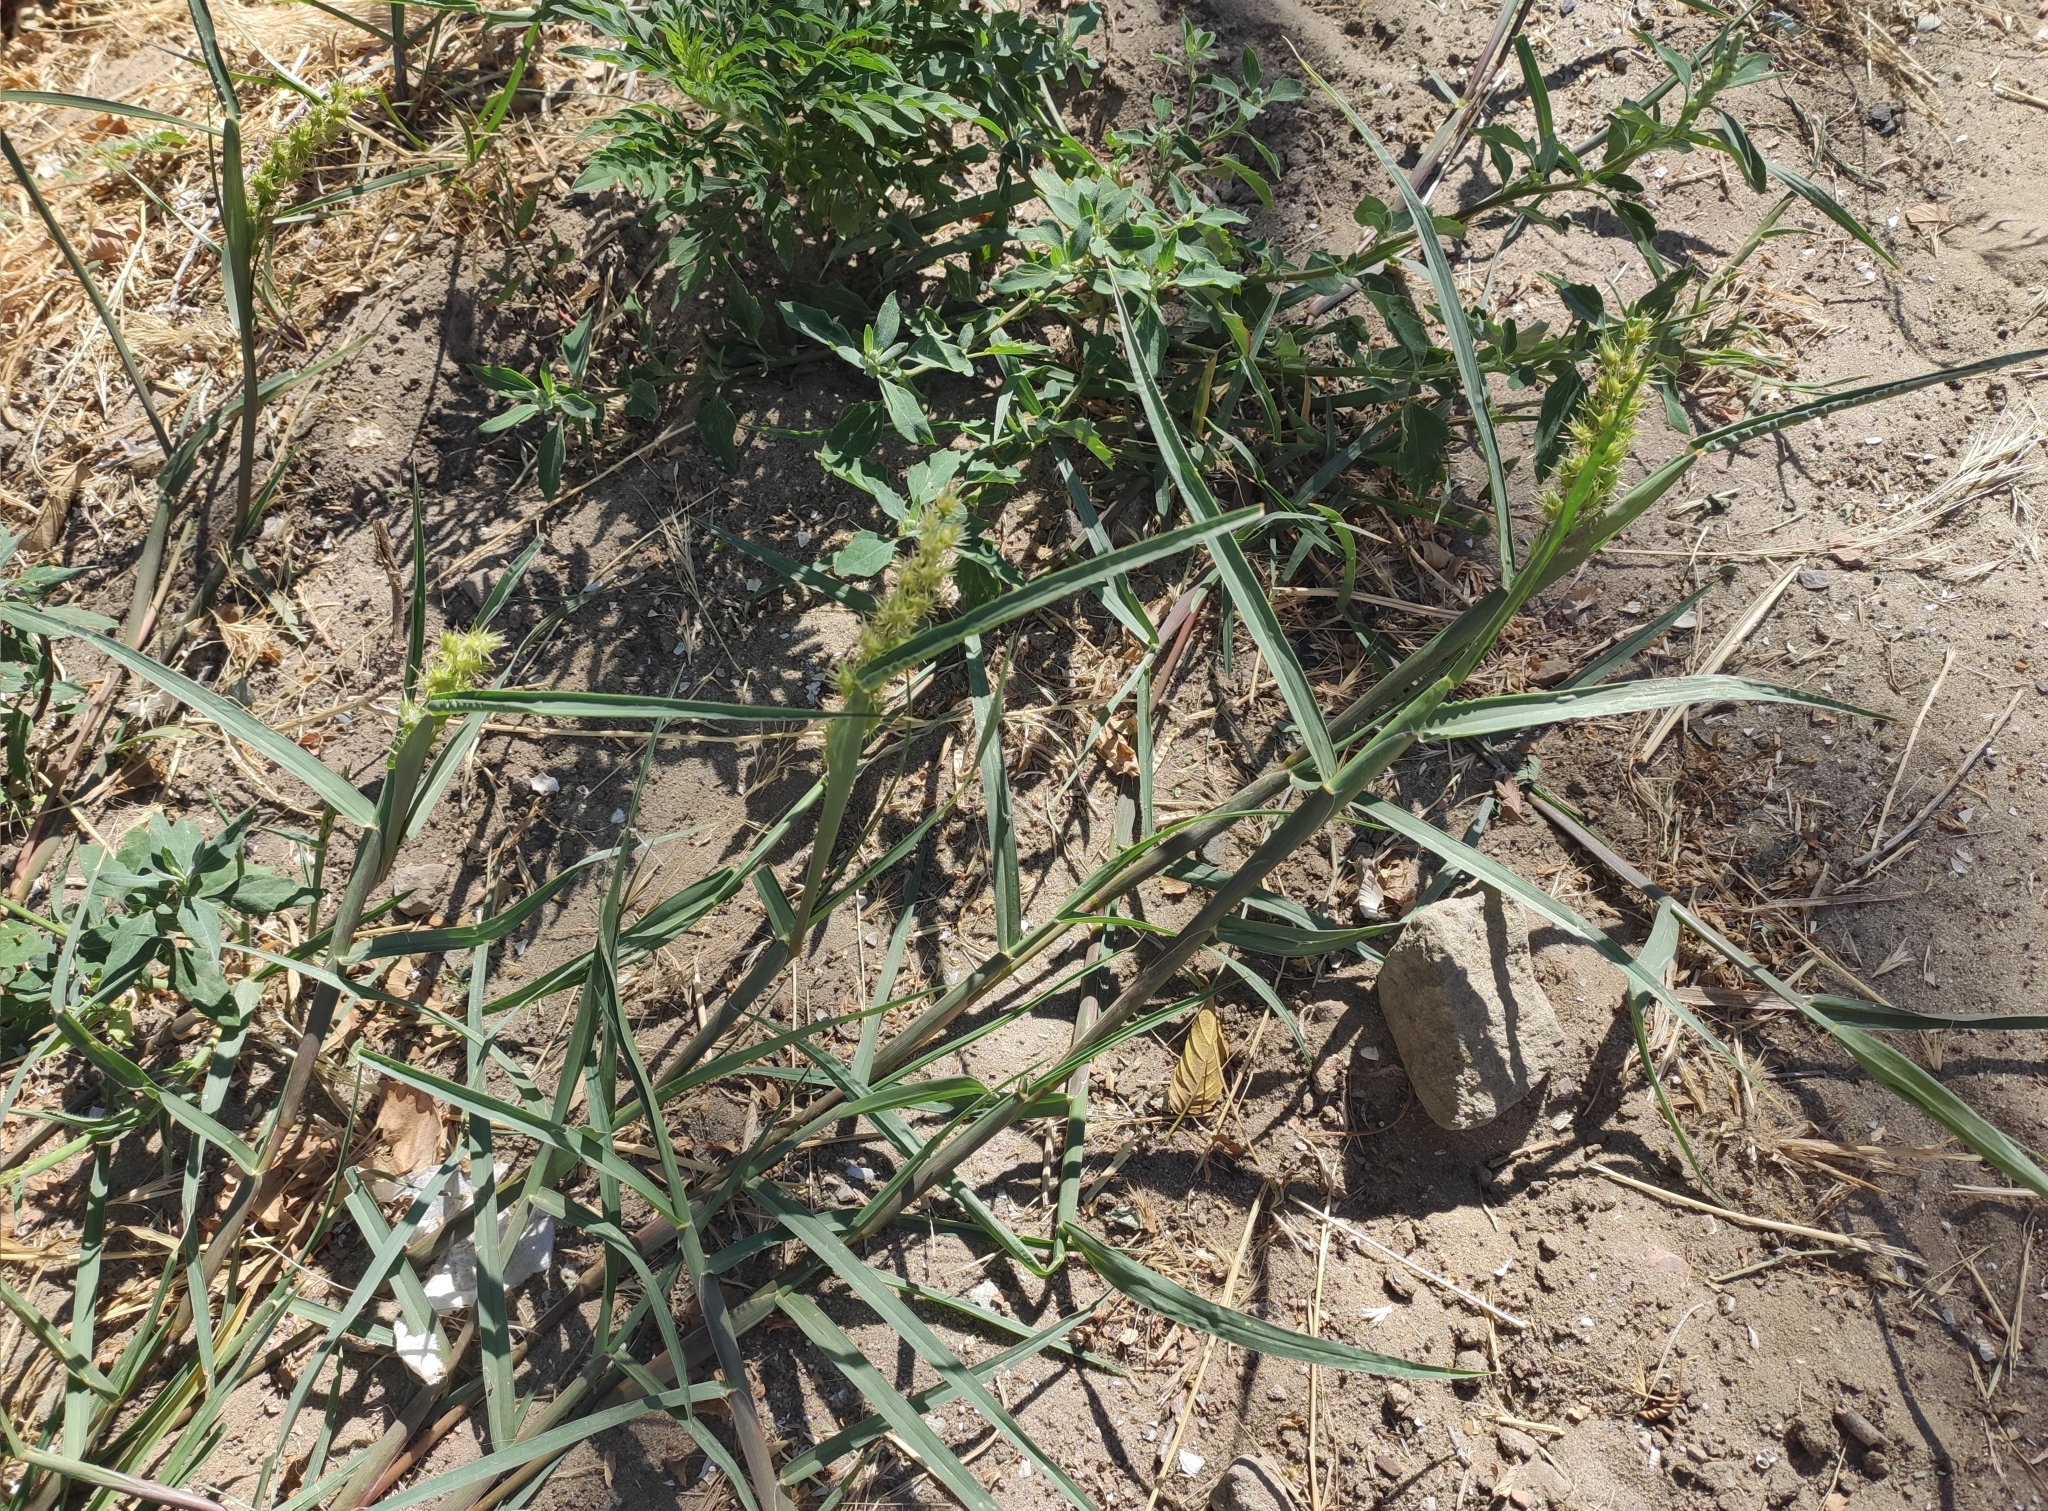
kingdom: Plantae
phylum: Tracheophyta
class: Liliopsida
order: Poales
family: Poaceae
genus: Cenchrus
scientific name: Cenchrus longispinus
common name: Mat sandbur
